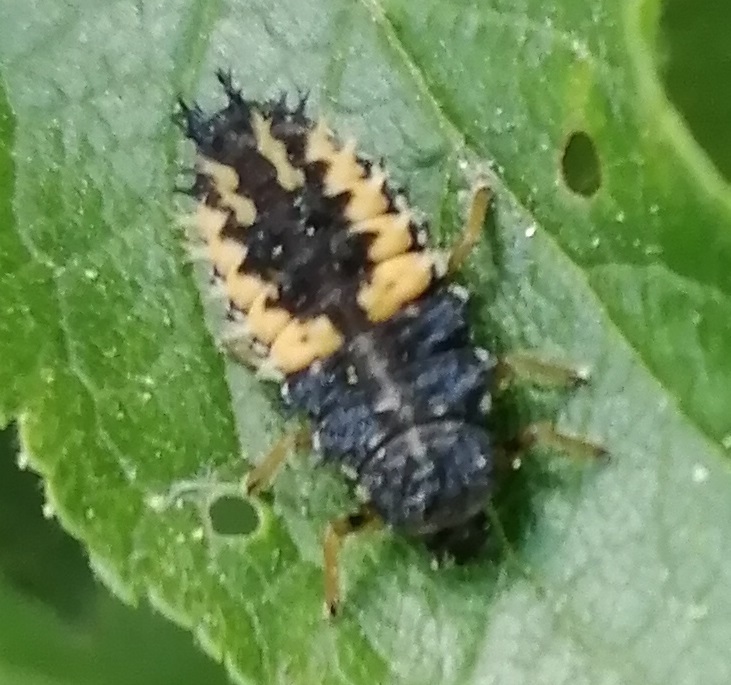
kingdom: Animalia
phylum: Arthropoda
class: Insecta
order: Coleoptera
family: Coccinellidae
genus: Harmonia
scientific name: Harmonia axyridis
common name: Harlequin ladybird
